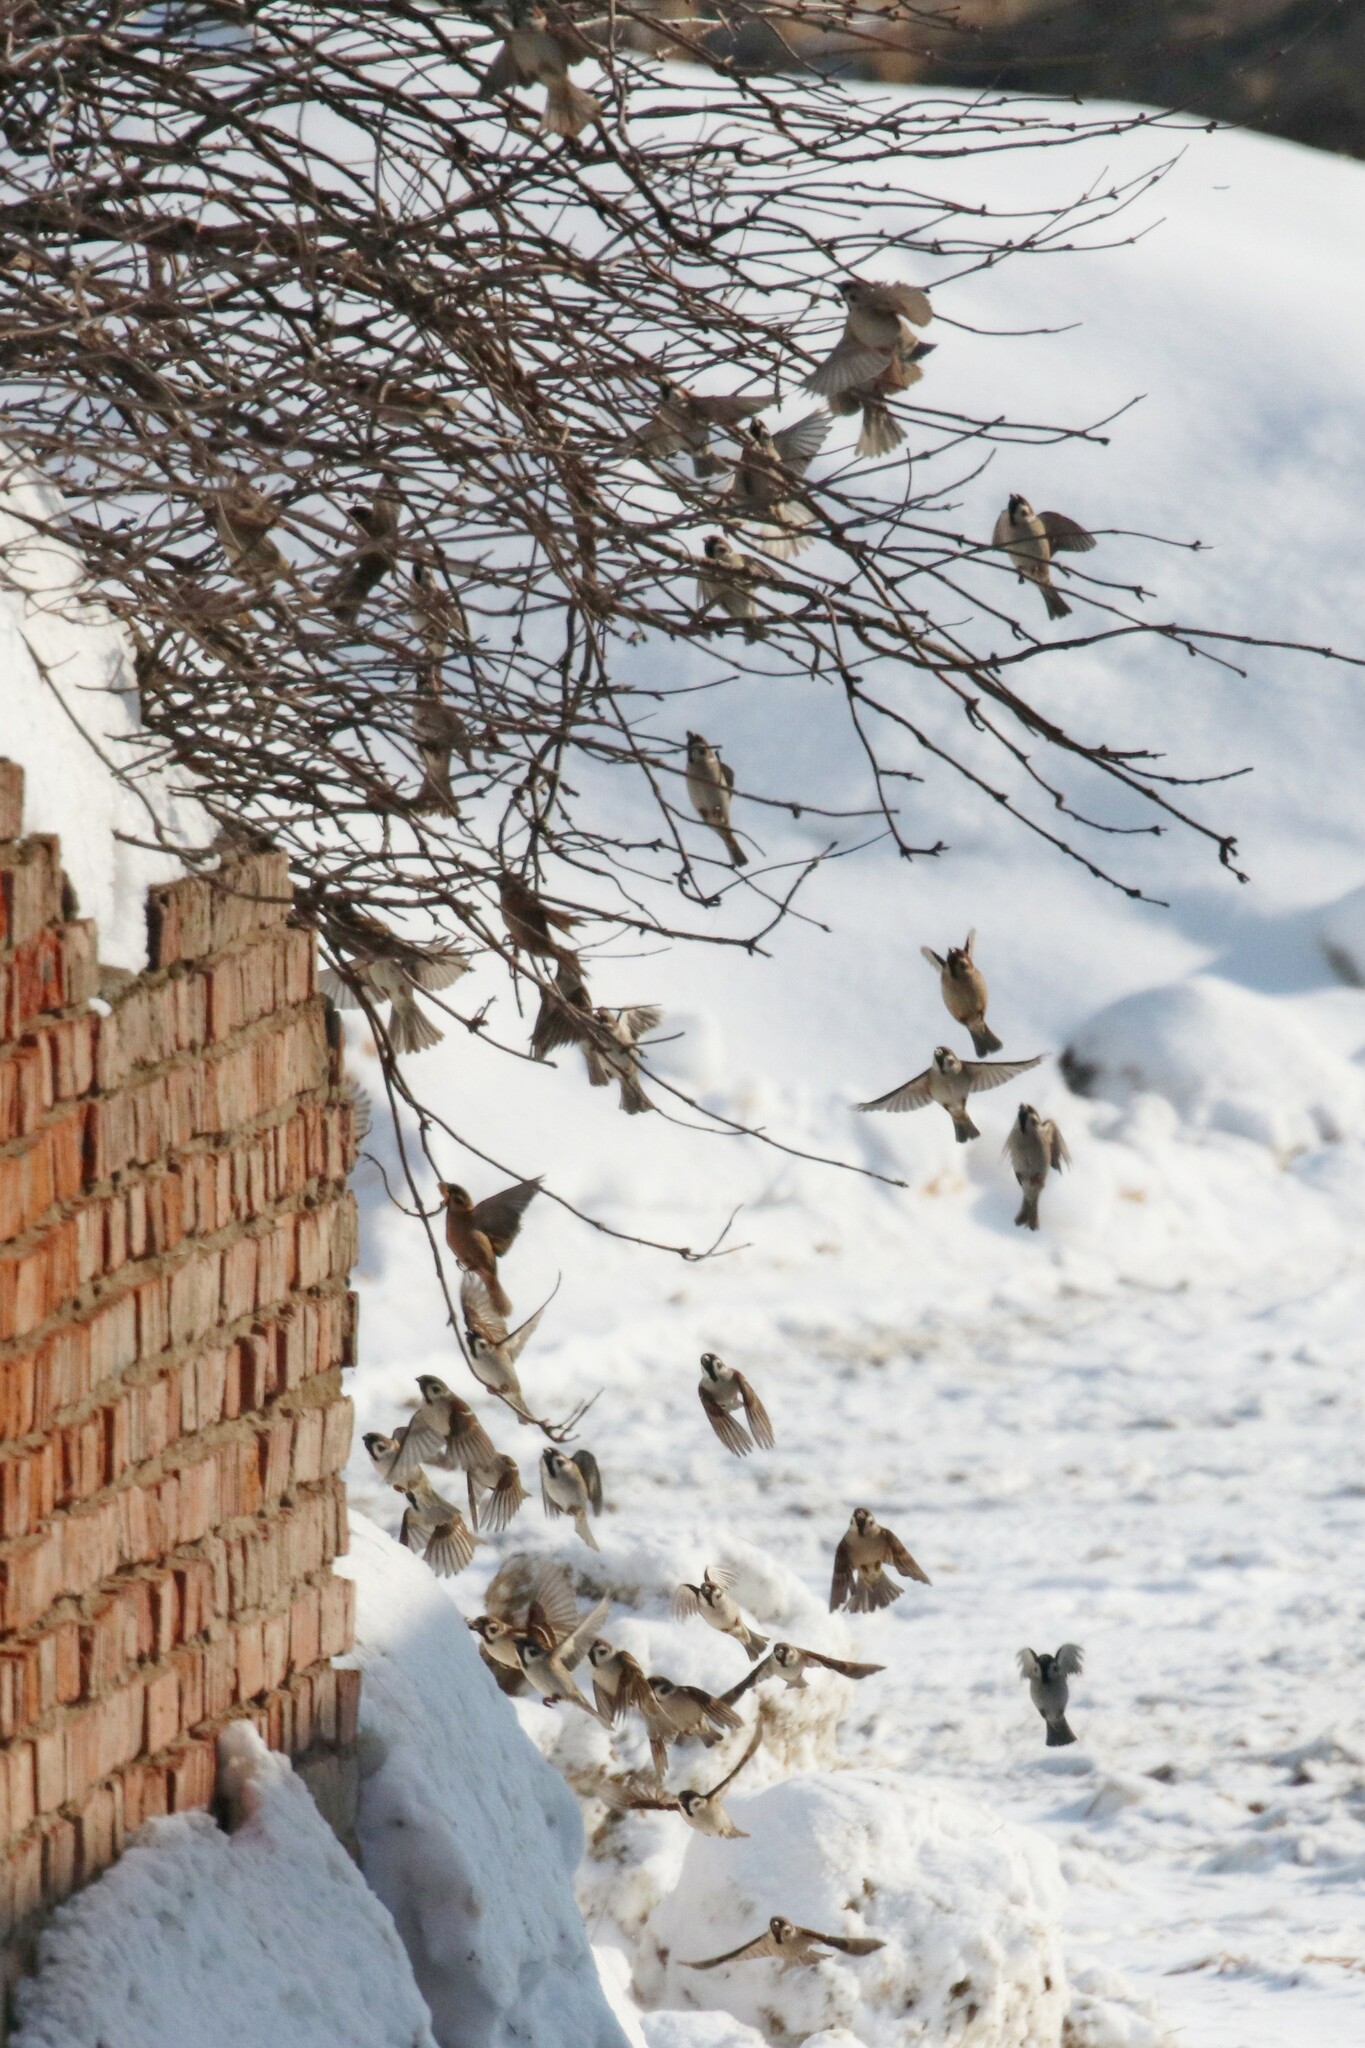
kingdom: Animalia
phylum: Chordata
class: Aves
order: Passeriformes
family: Passeridae
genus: Passer
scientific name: Passer montanus
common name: Eurasian tree sparrow
